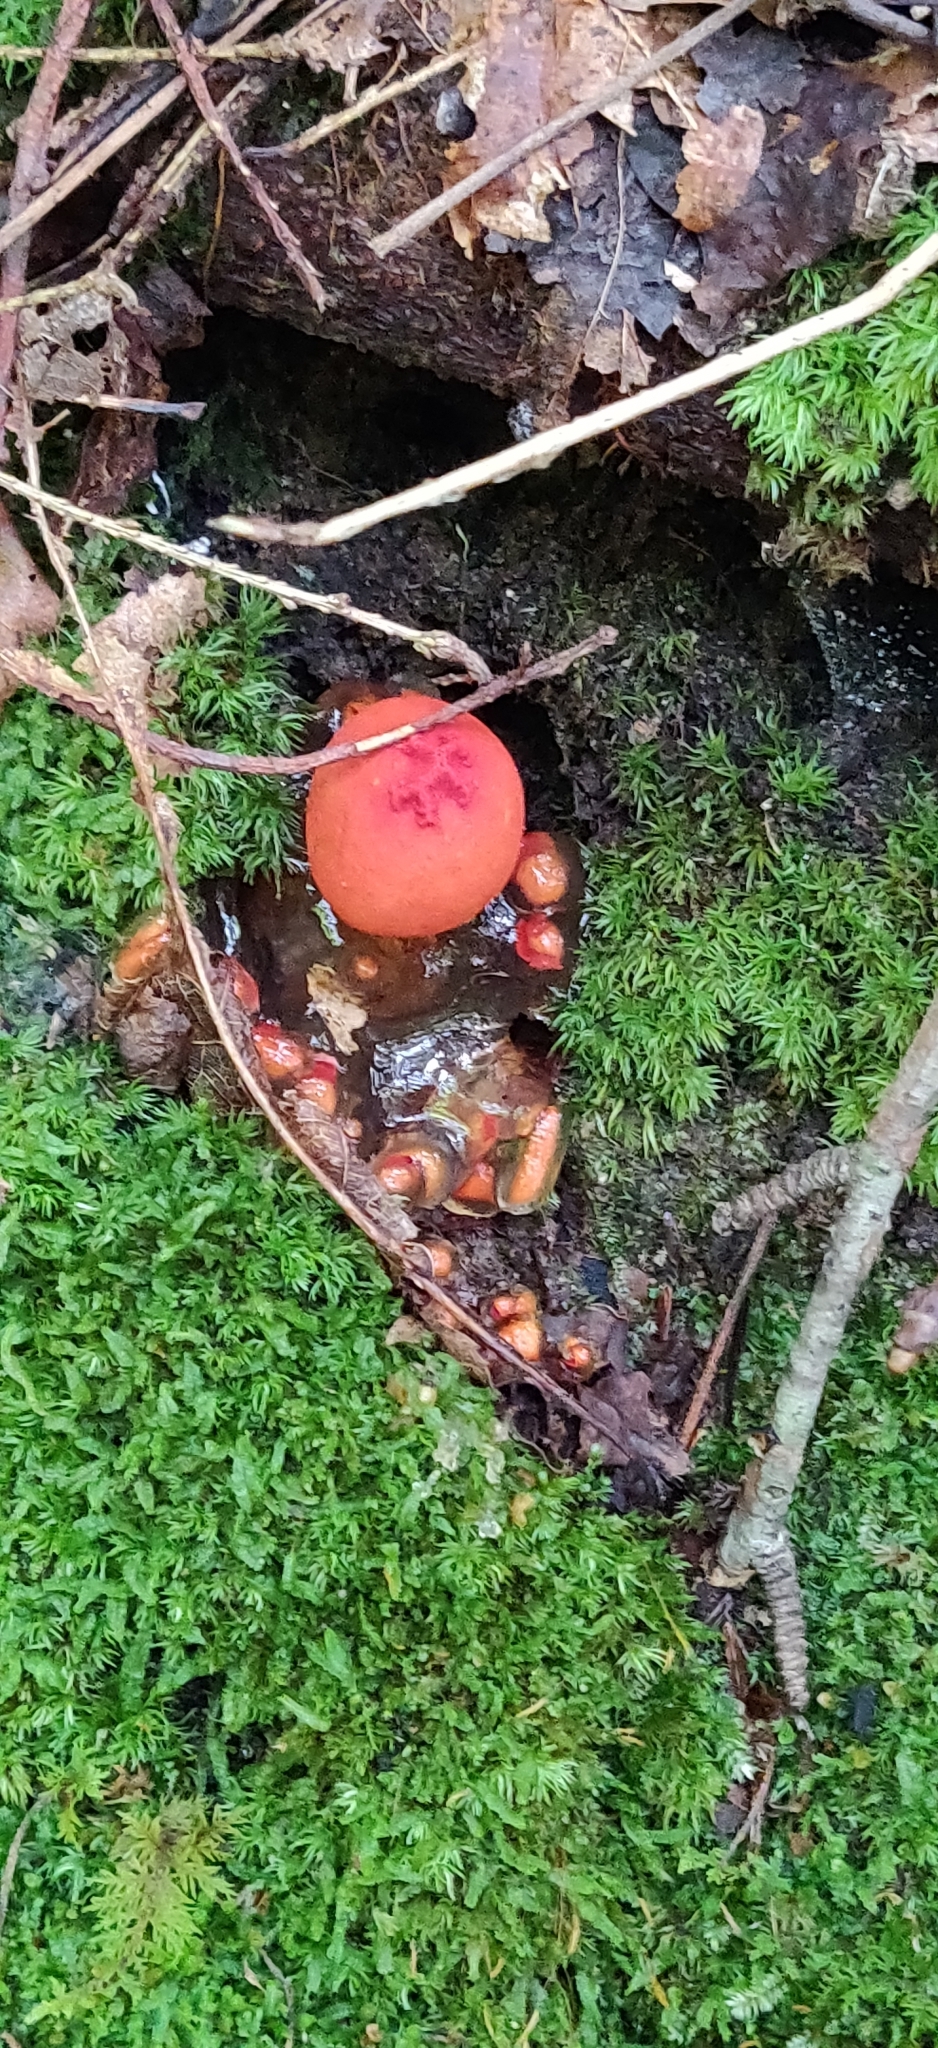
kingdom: Fungi
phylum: Basidiomycota
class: Agaricomycetes
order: Boletales
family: Calostomataceae
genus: Calostoma
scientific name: Calostoma cinnabarinum
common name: Stalked puffball-in-aspic
